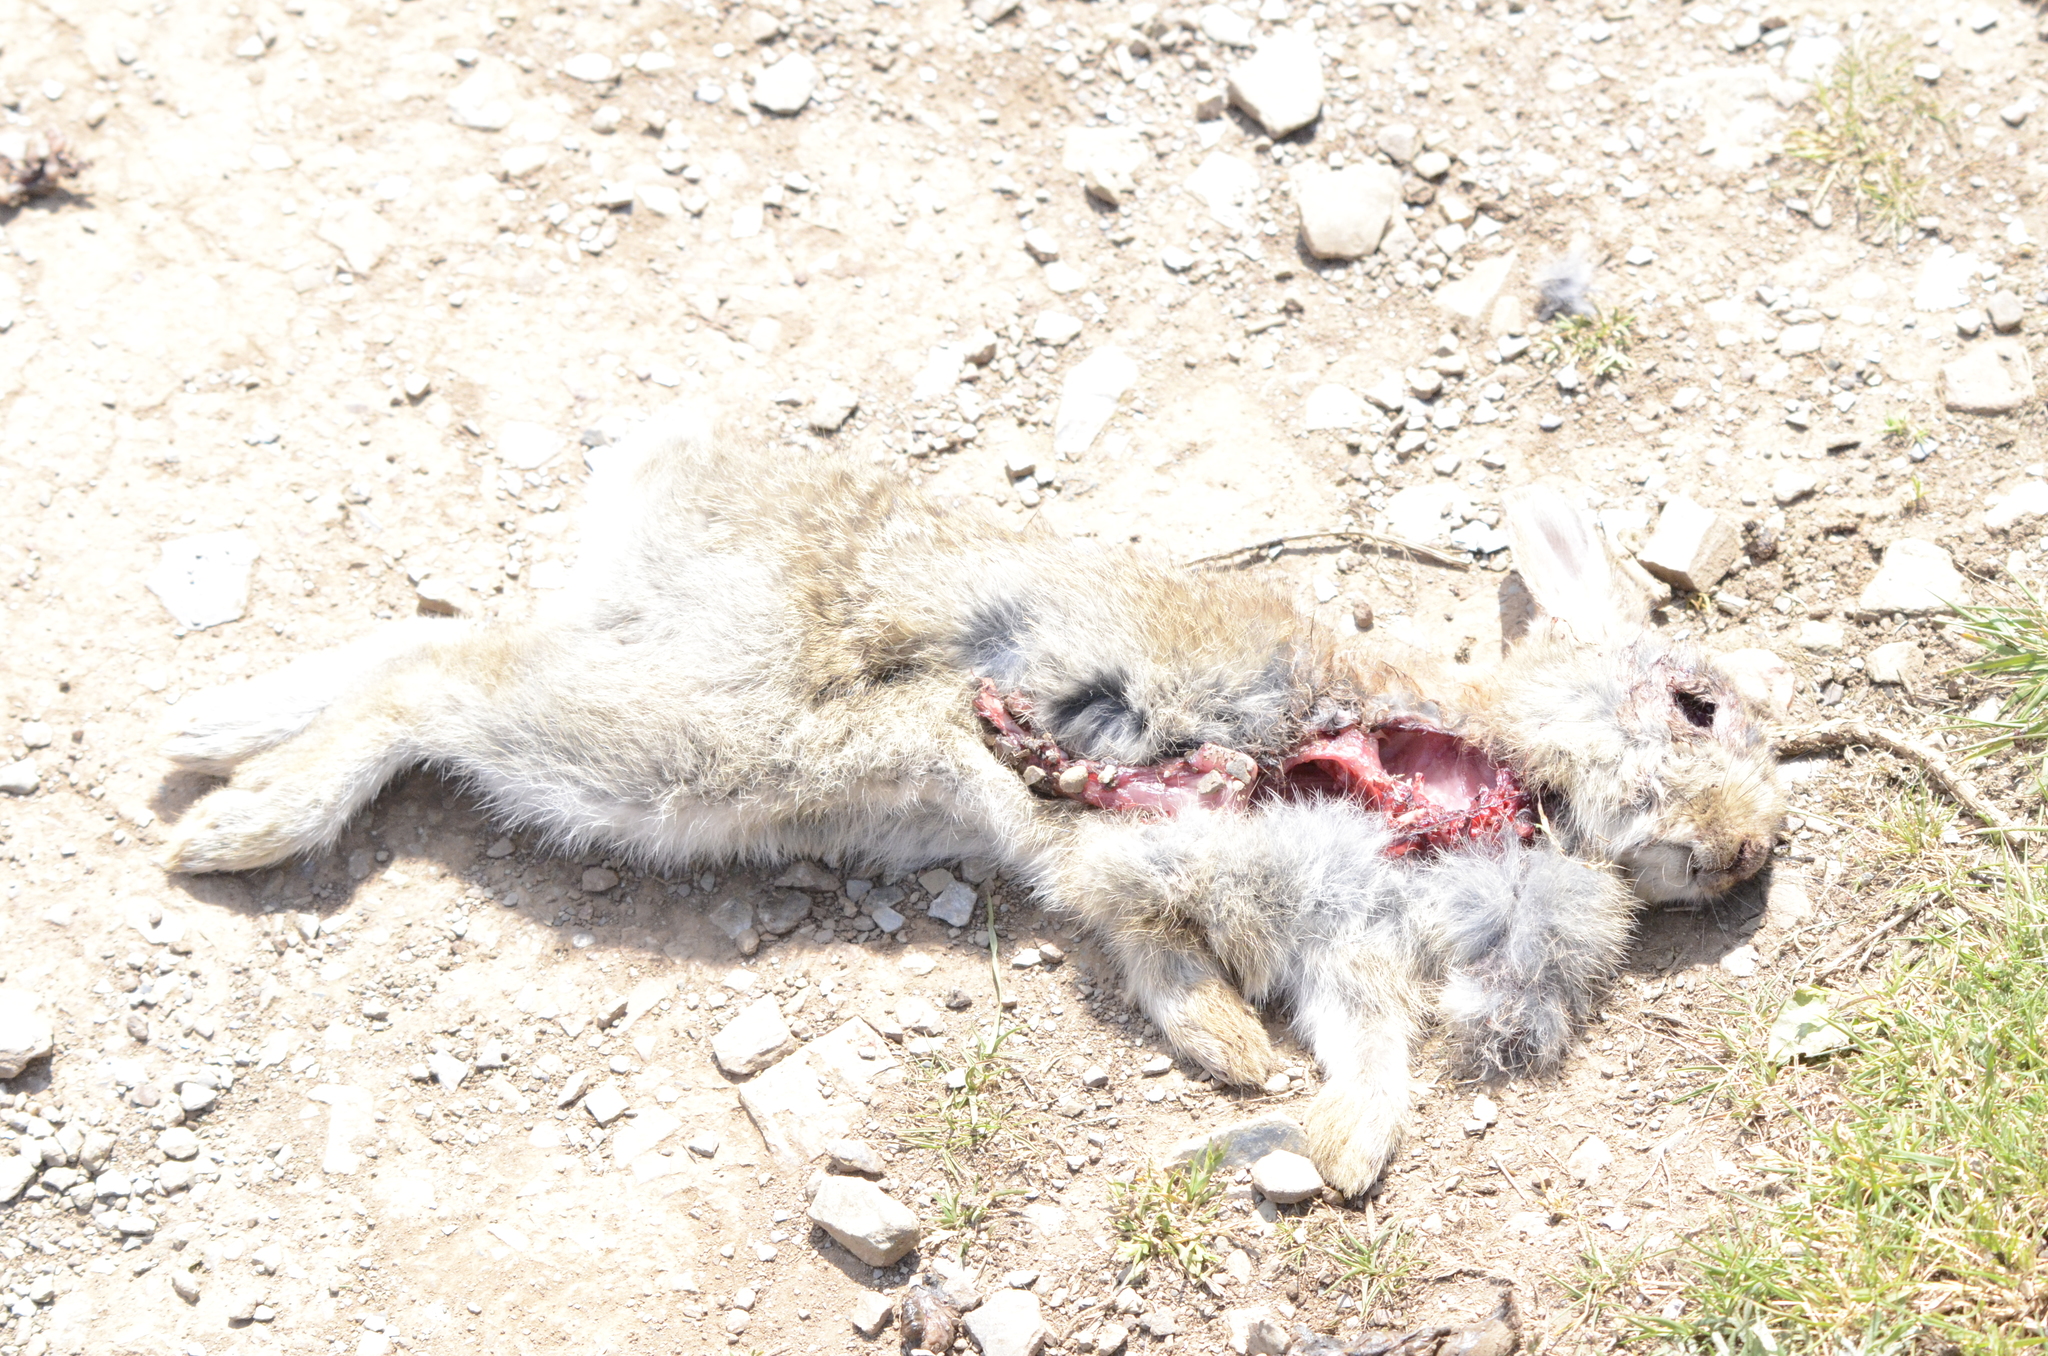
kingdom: Animalia
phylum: Chordata
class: Mammalia
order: Lagomorpha
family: Leporidae
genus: Oryctolagus
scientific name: Oryctolagus cuniculus
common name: European rabbit
